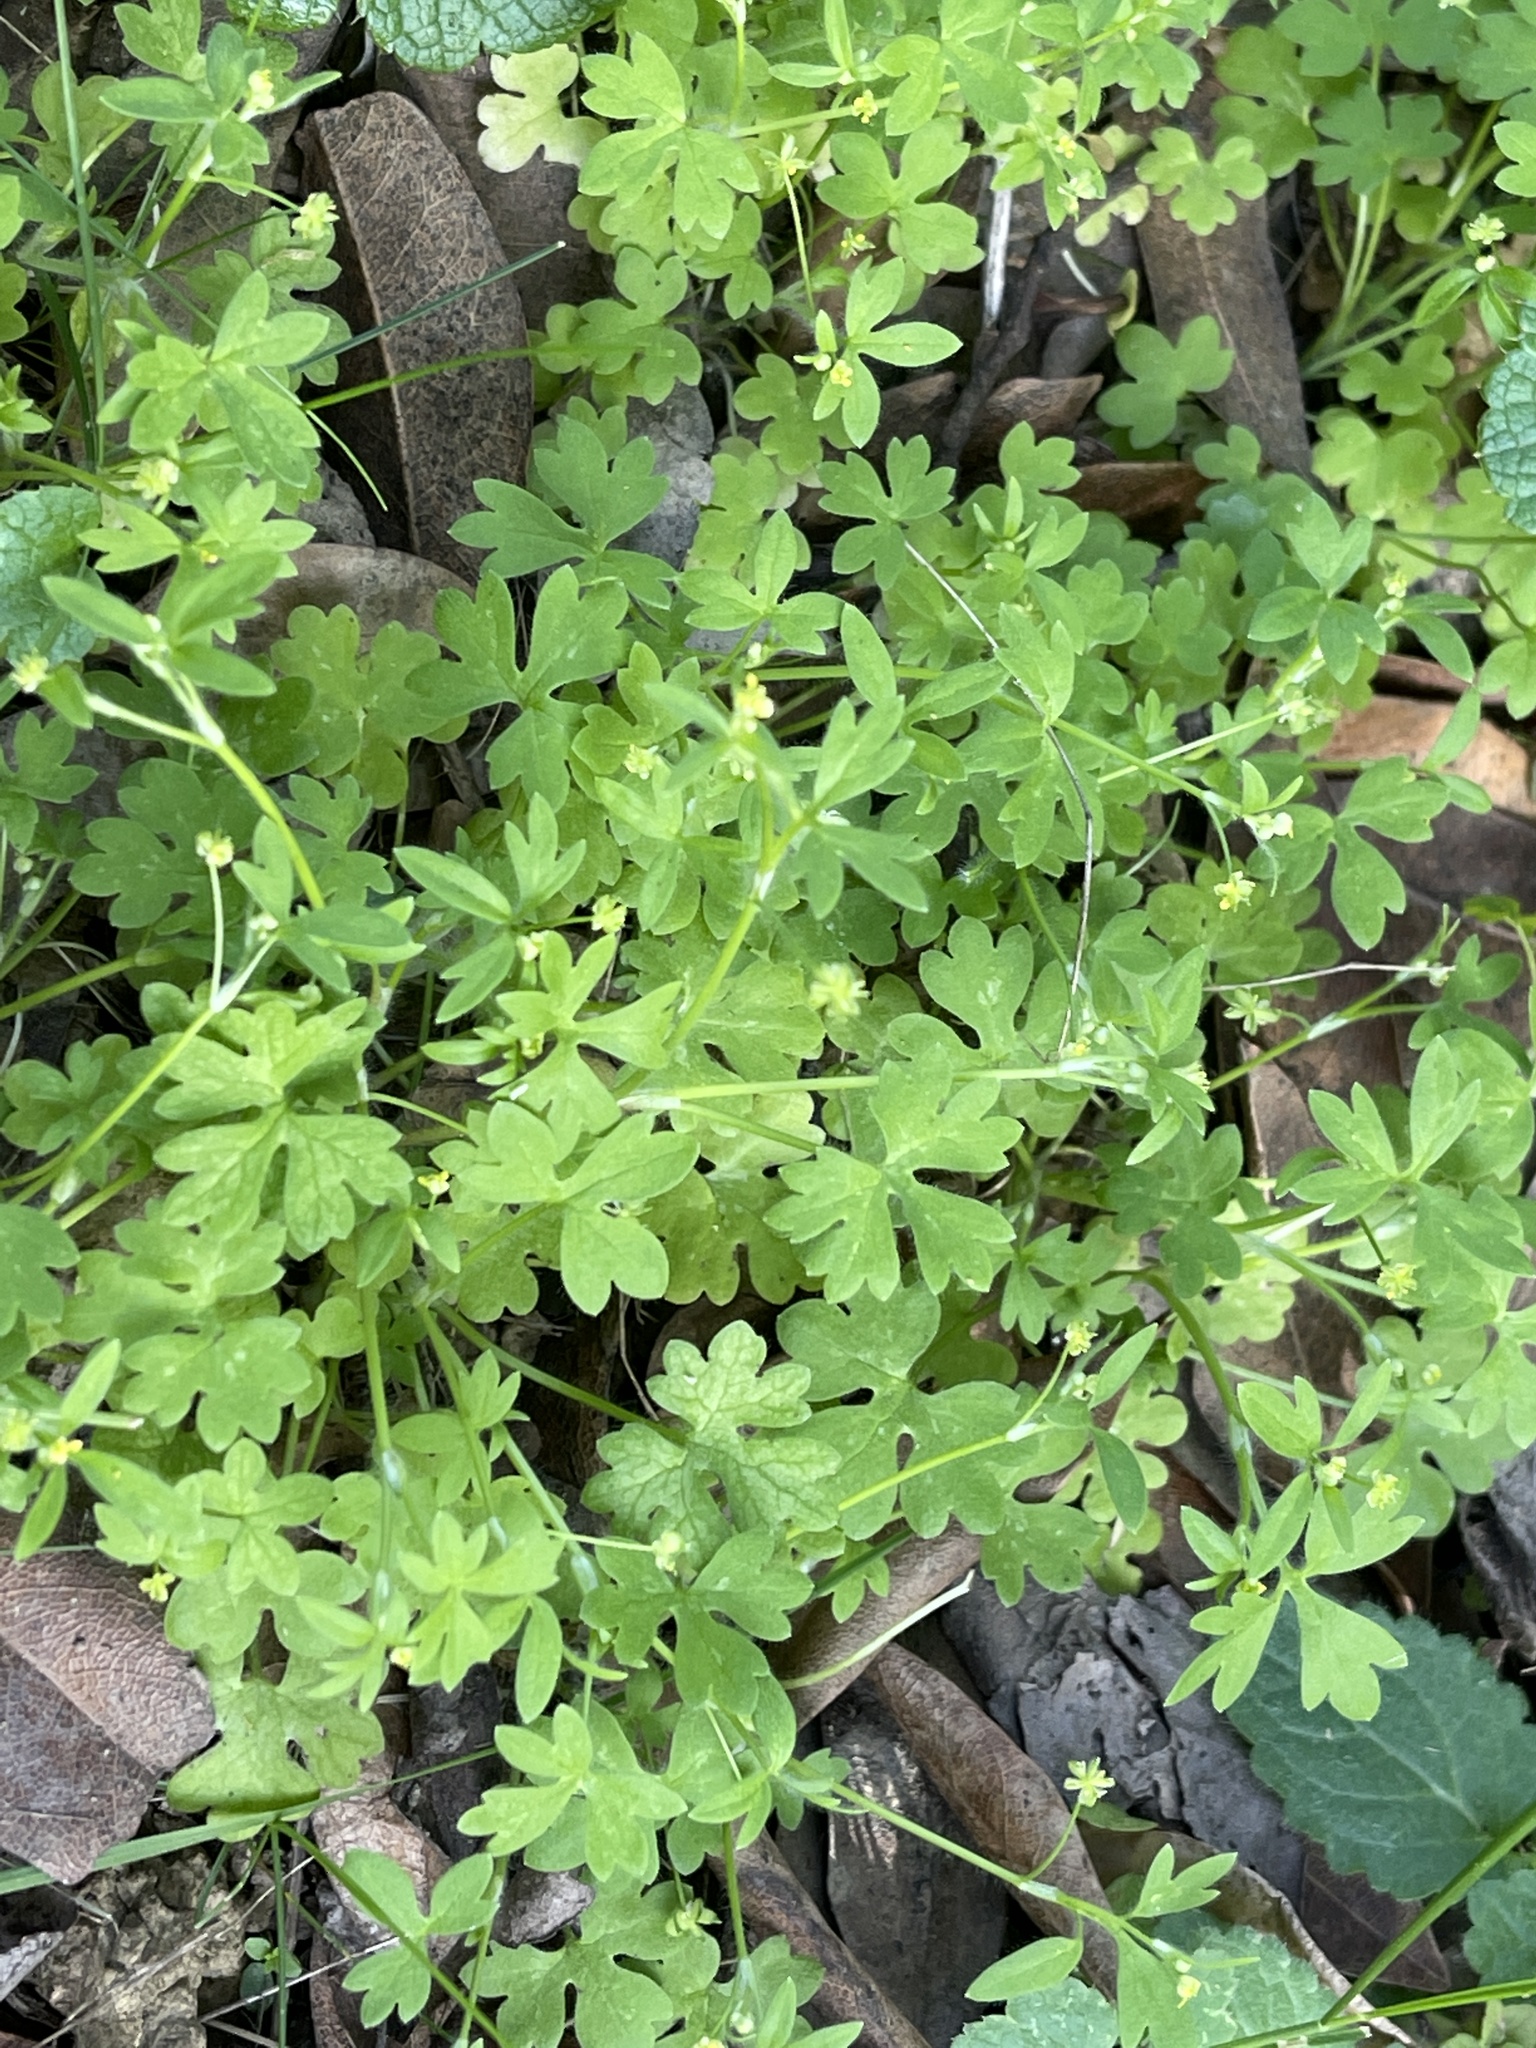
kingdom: Plantae
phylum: Tracheophyta
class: Magnoliopsida
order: Ranunculales
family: Ranunculaceae
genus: Ranunculus
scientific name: Ranunculus hebecarpus
